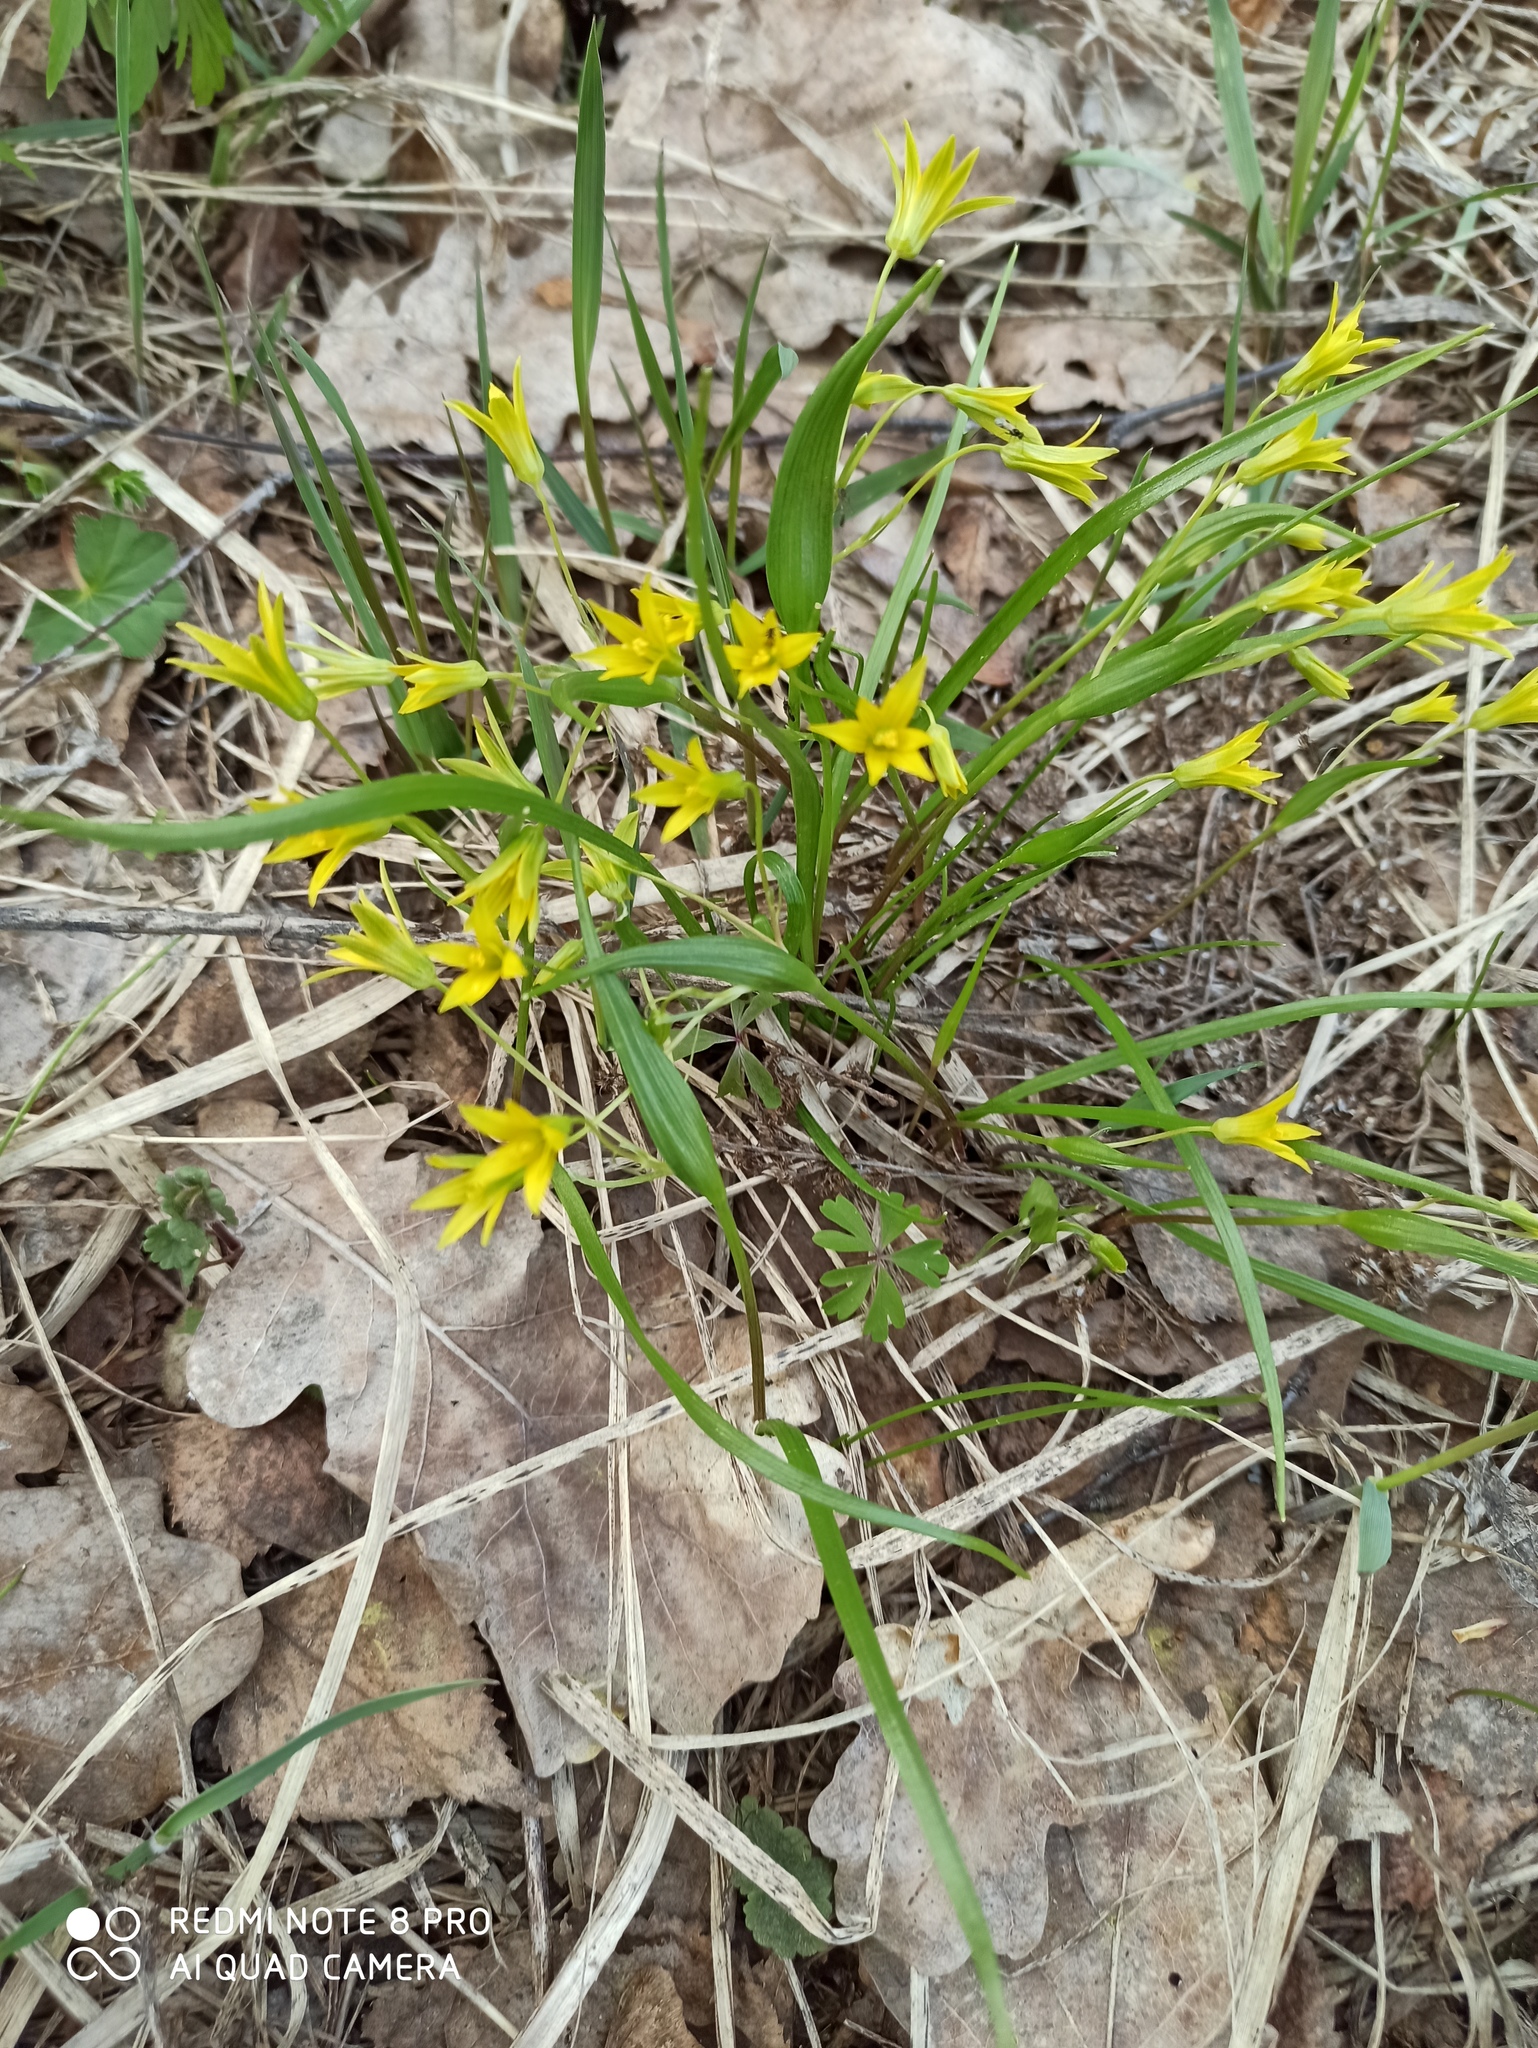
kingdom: Plantae
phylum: Tracheophyta
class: Liliopsida
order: Liliales
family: Liliaceae
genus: Gagea
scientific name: Gagea minima
